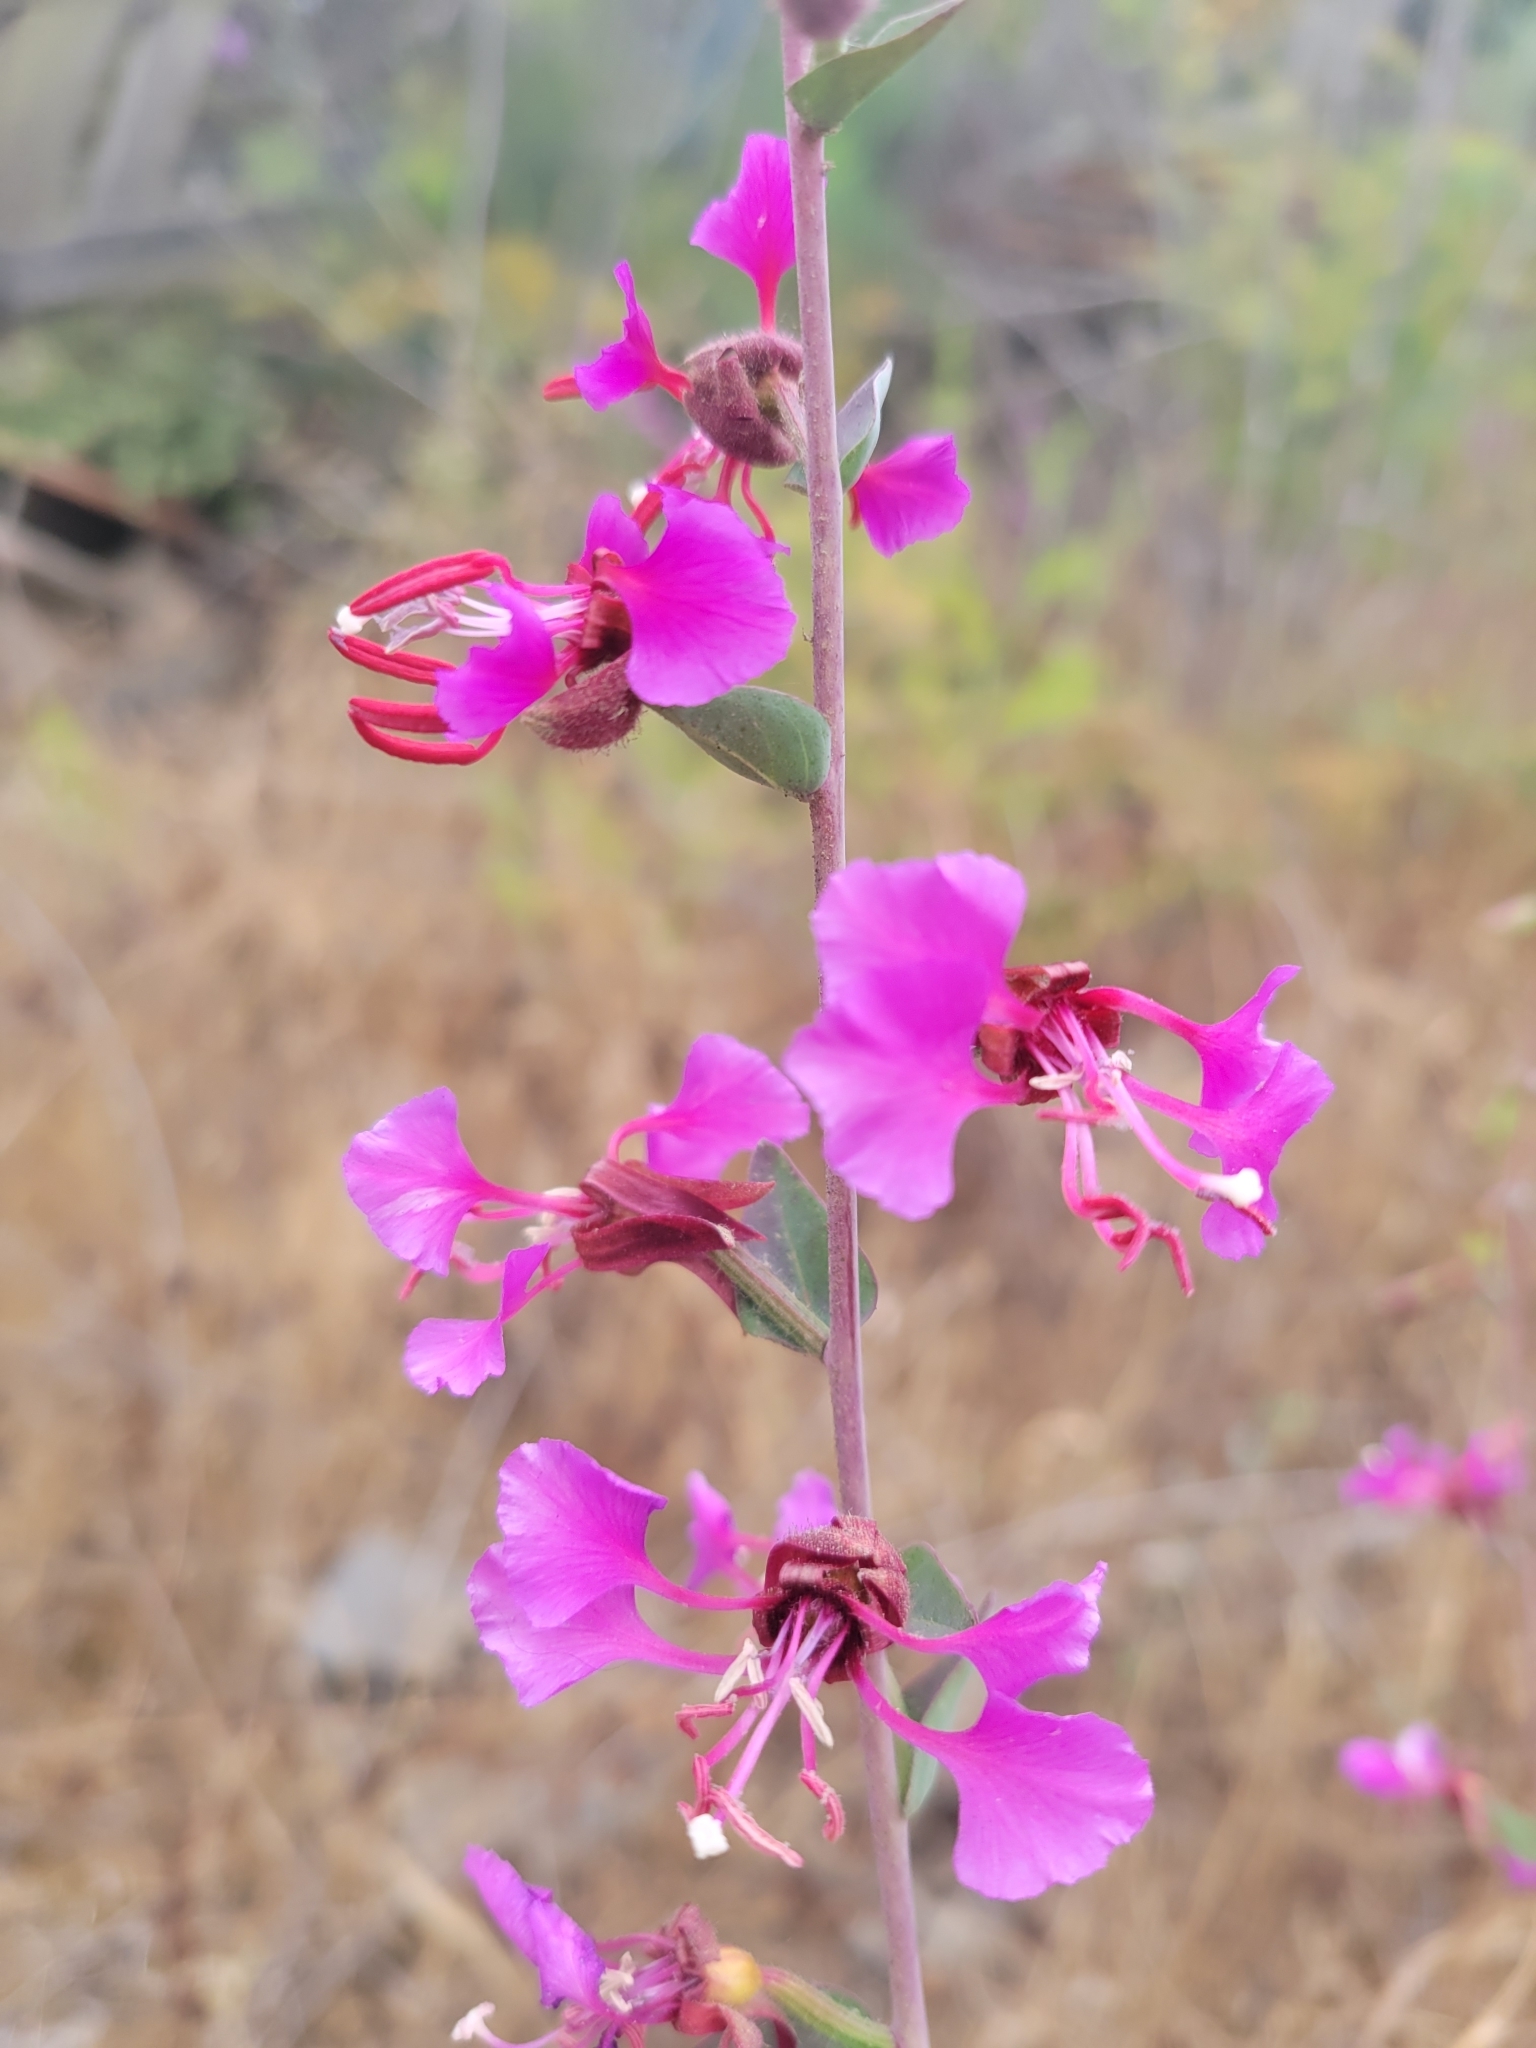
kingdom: Plantae
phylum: Tracheophyta
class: Magnoliopsida
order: Myrtales
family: Onagraceae
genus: Clarkia
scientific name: Clarkia unguiculata
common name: Clarkia
